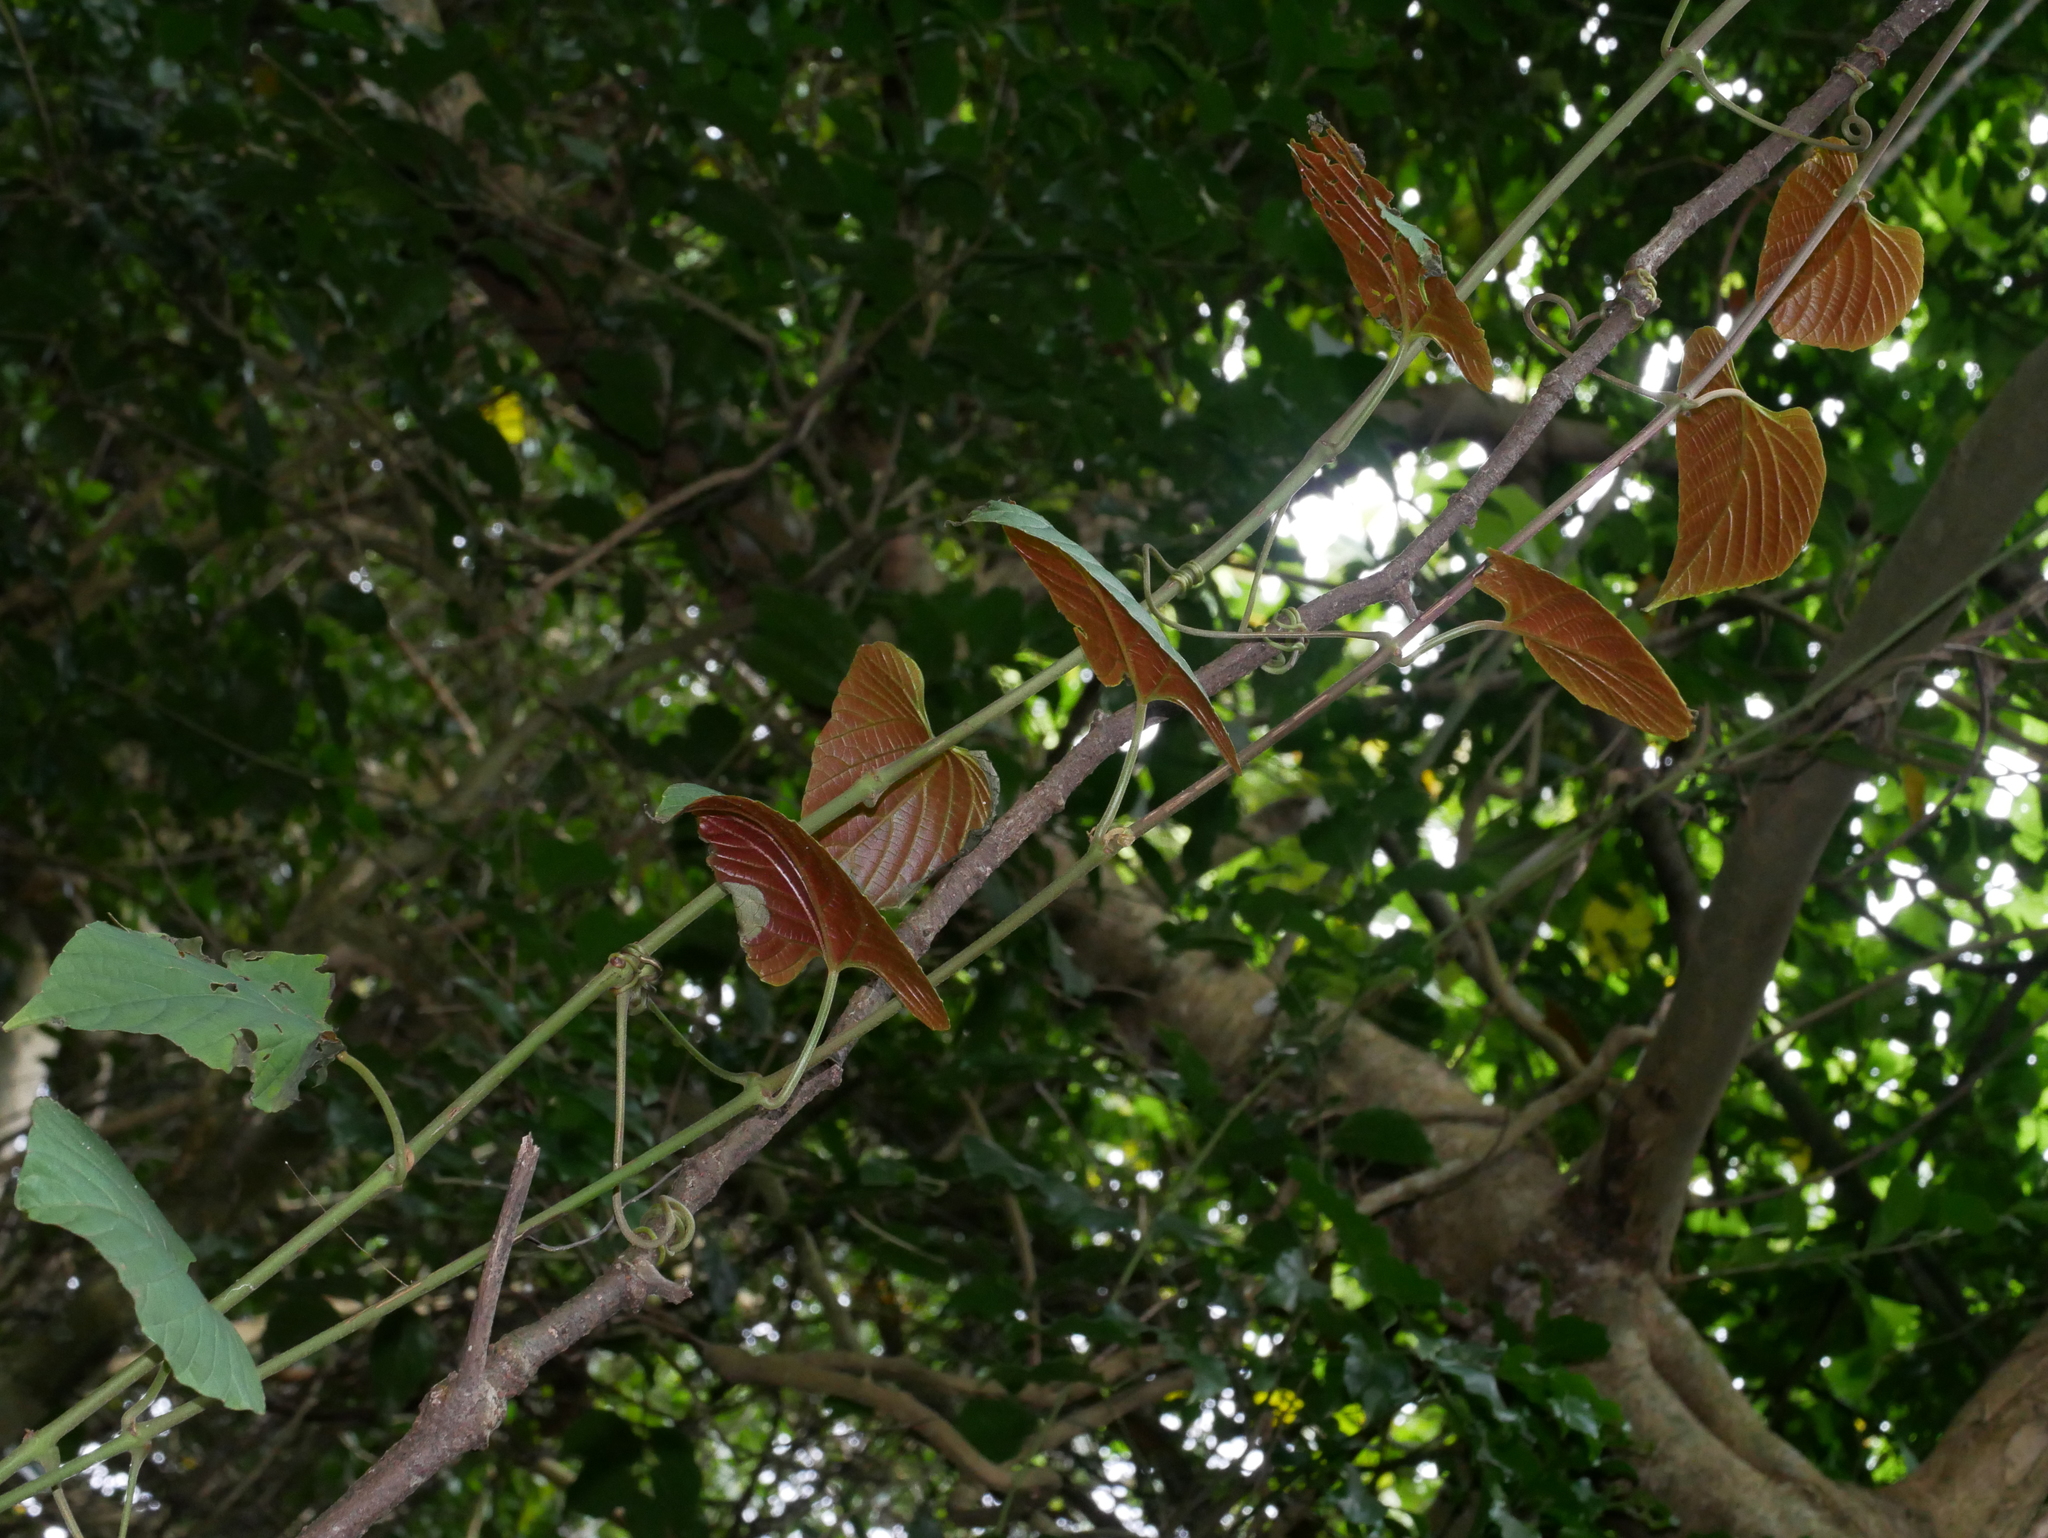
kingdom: Plantae
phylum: Tracheophyta
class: Magnoliopsida
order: Vitales
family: Vitaceae
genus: Cissus
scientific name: Cissus adnata
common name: Heart-leaf-grape
